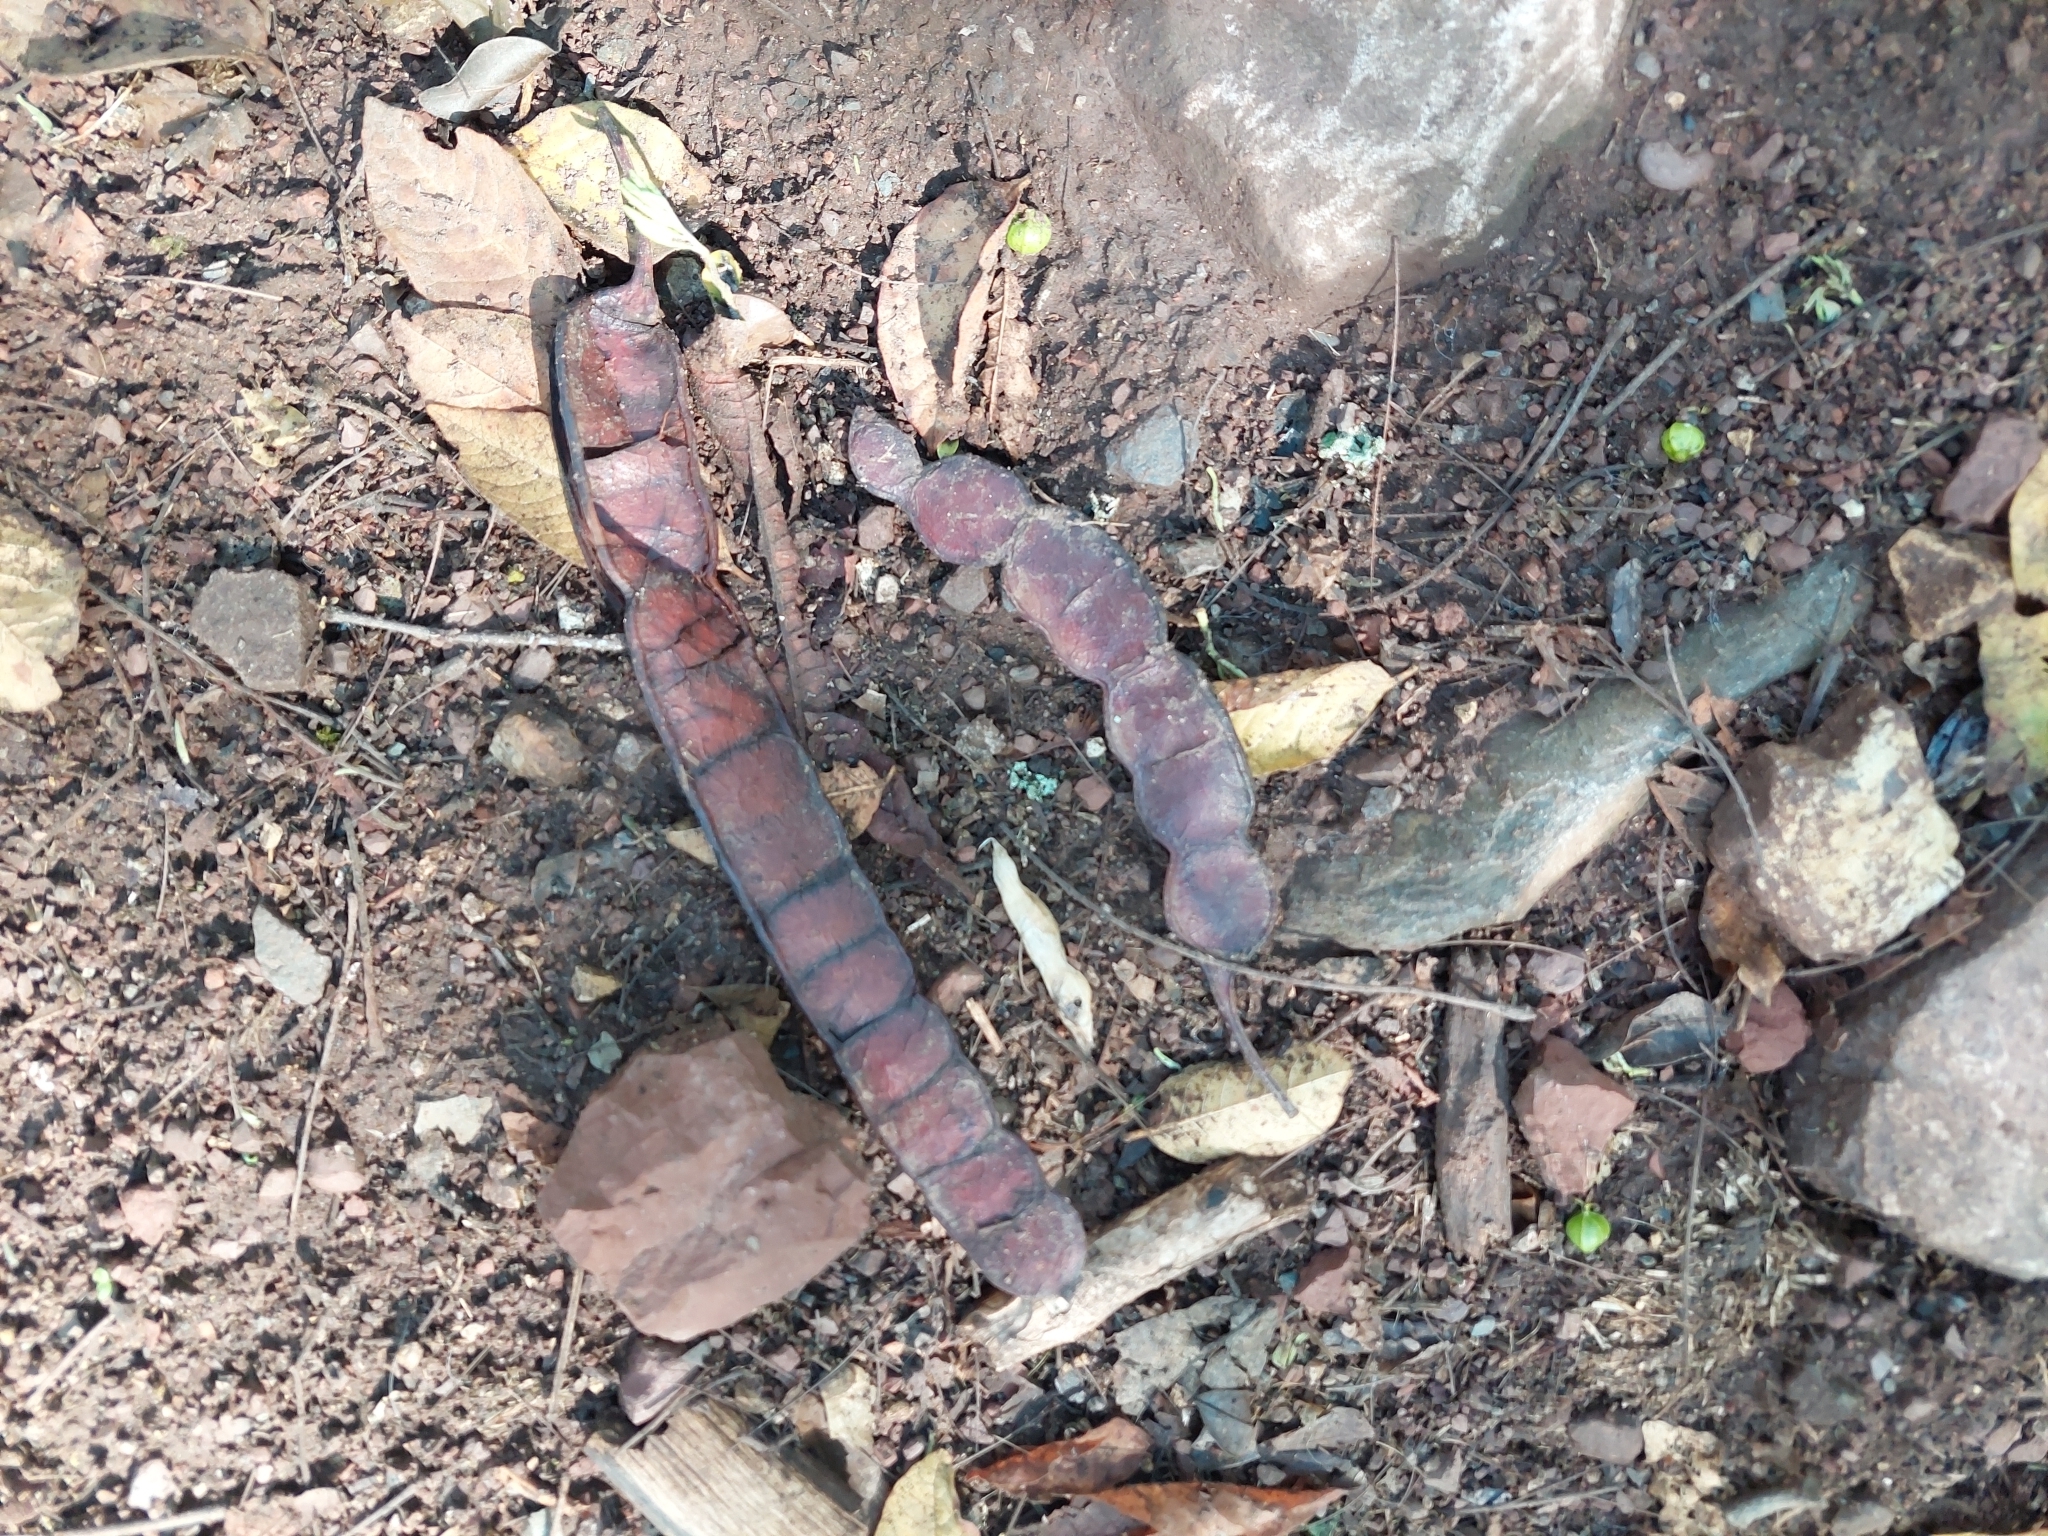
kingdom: Plantae
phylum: Tracheophyta
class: Magnoliopsida
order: Fabales
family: Fabaceae
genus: Anadenanthera
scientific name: Anadenanthera colubrina
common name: Curupay
